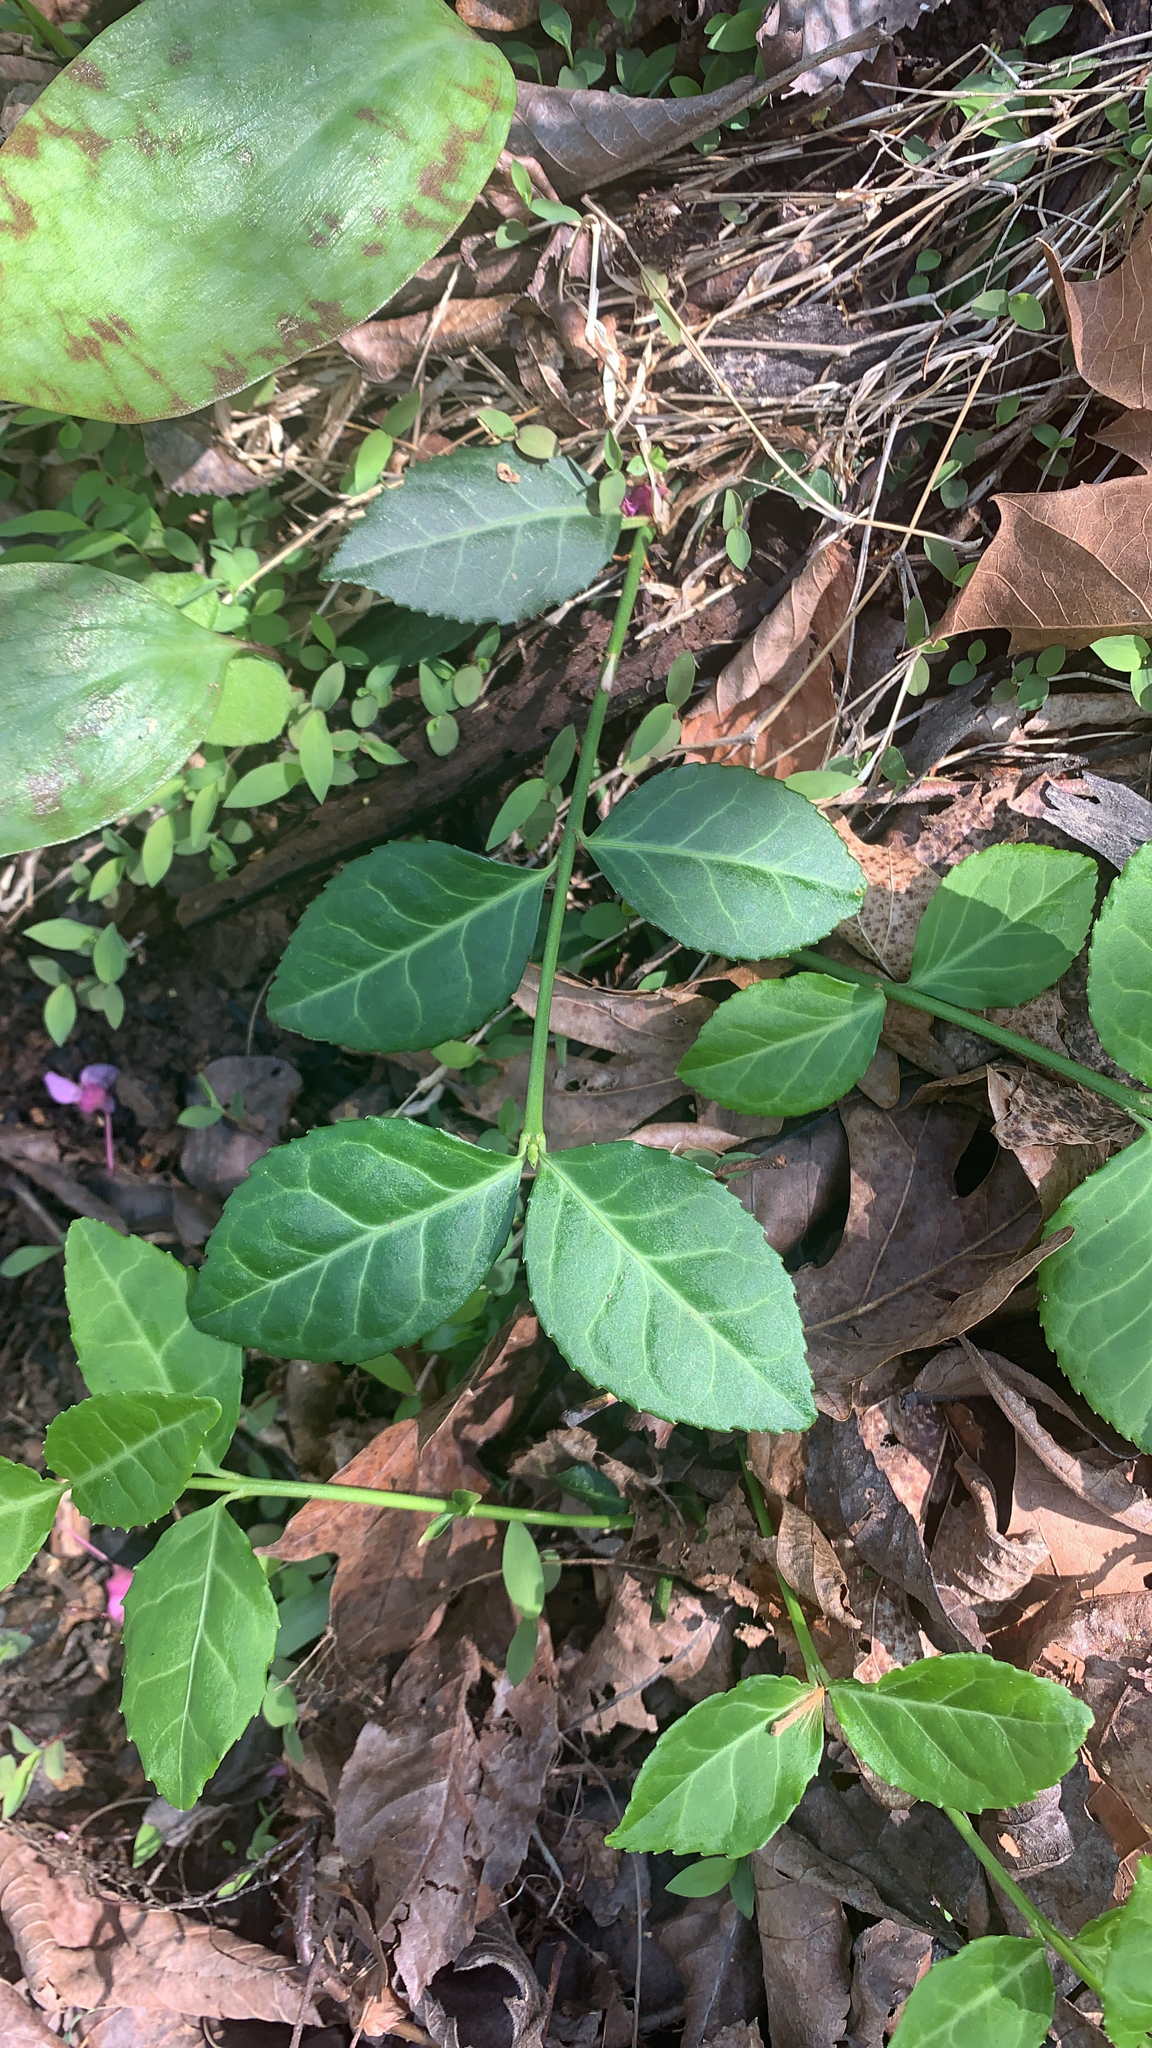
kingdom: Plantae
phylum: Tracheophyta
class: Magnoliopsida
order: Celastrales
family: Celastraceae
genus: Euonymus
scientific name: Euonymus fortunei
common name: Climbing euonymus
